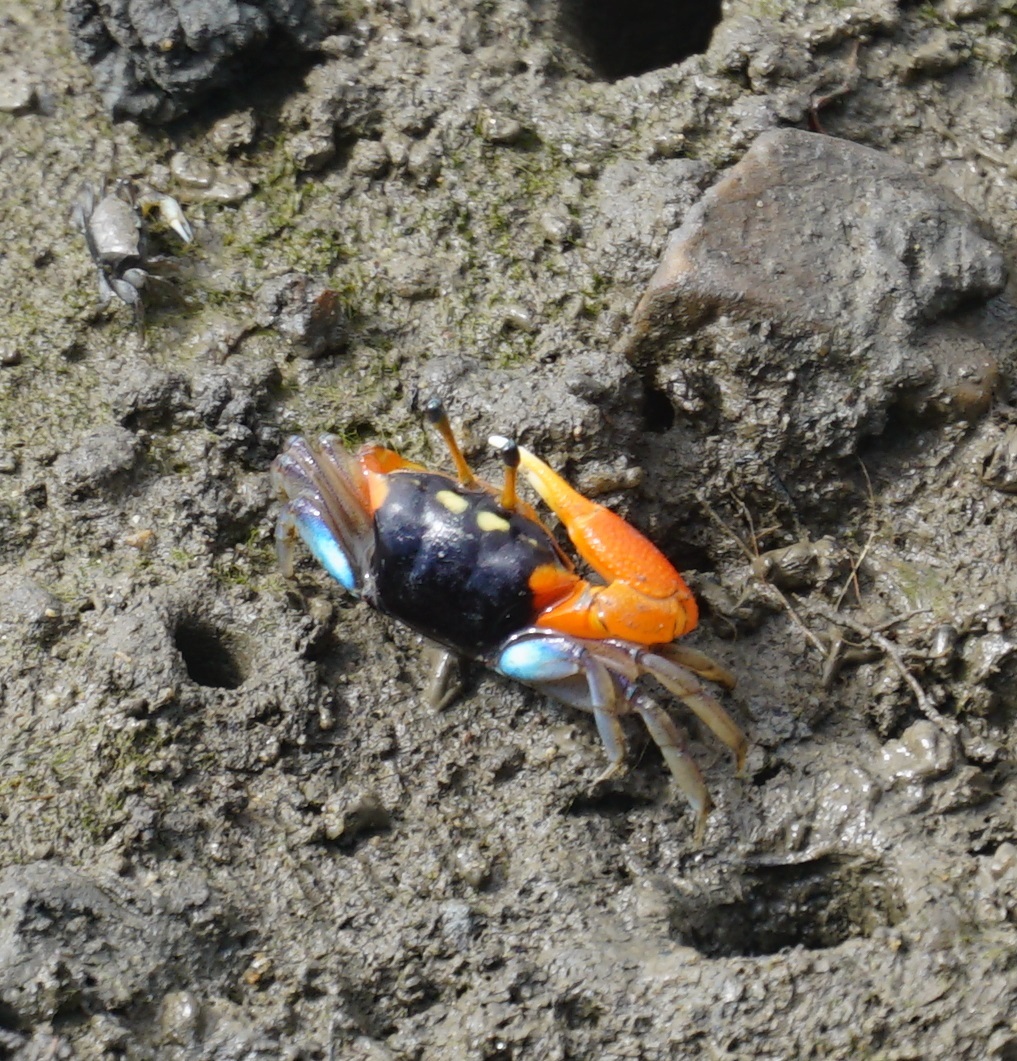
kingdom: Animalia
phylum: Arthropoda
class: Malacostraca
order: Decapoda
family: Ocypodidae
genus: Tubuca
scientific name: Tubuca coarctata
